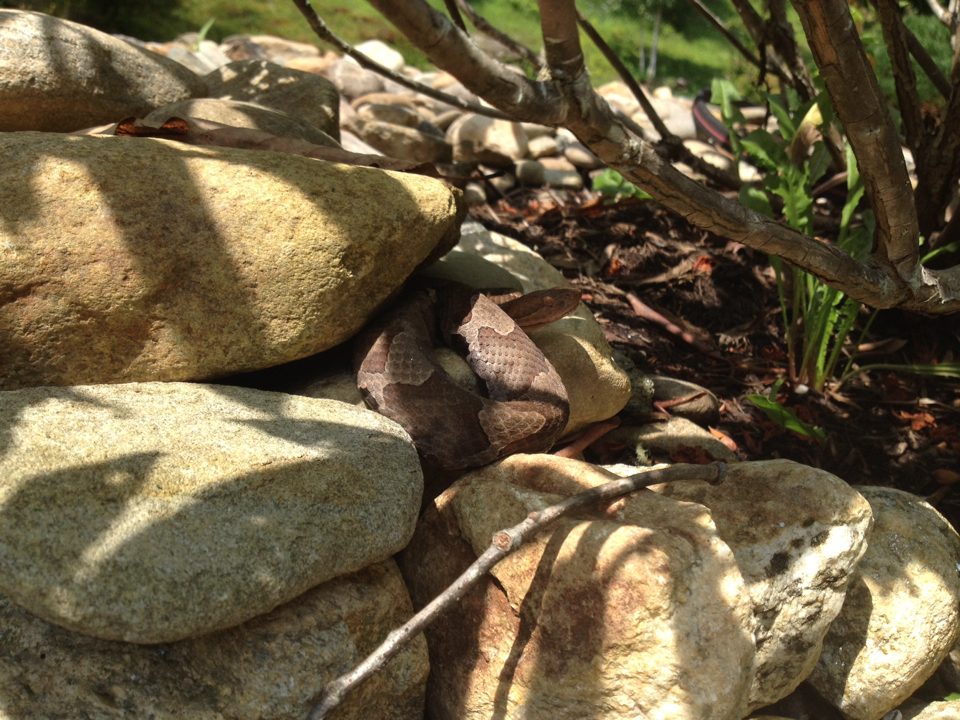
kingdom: Animalia
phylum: Chordata
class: Squamata
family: Viperidae
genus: Agkistrodon
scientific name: Agkistrodon contortrix
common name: Northern copperhead
